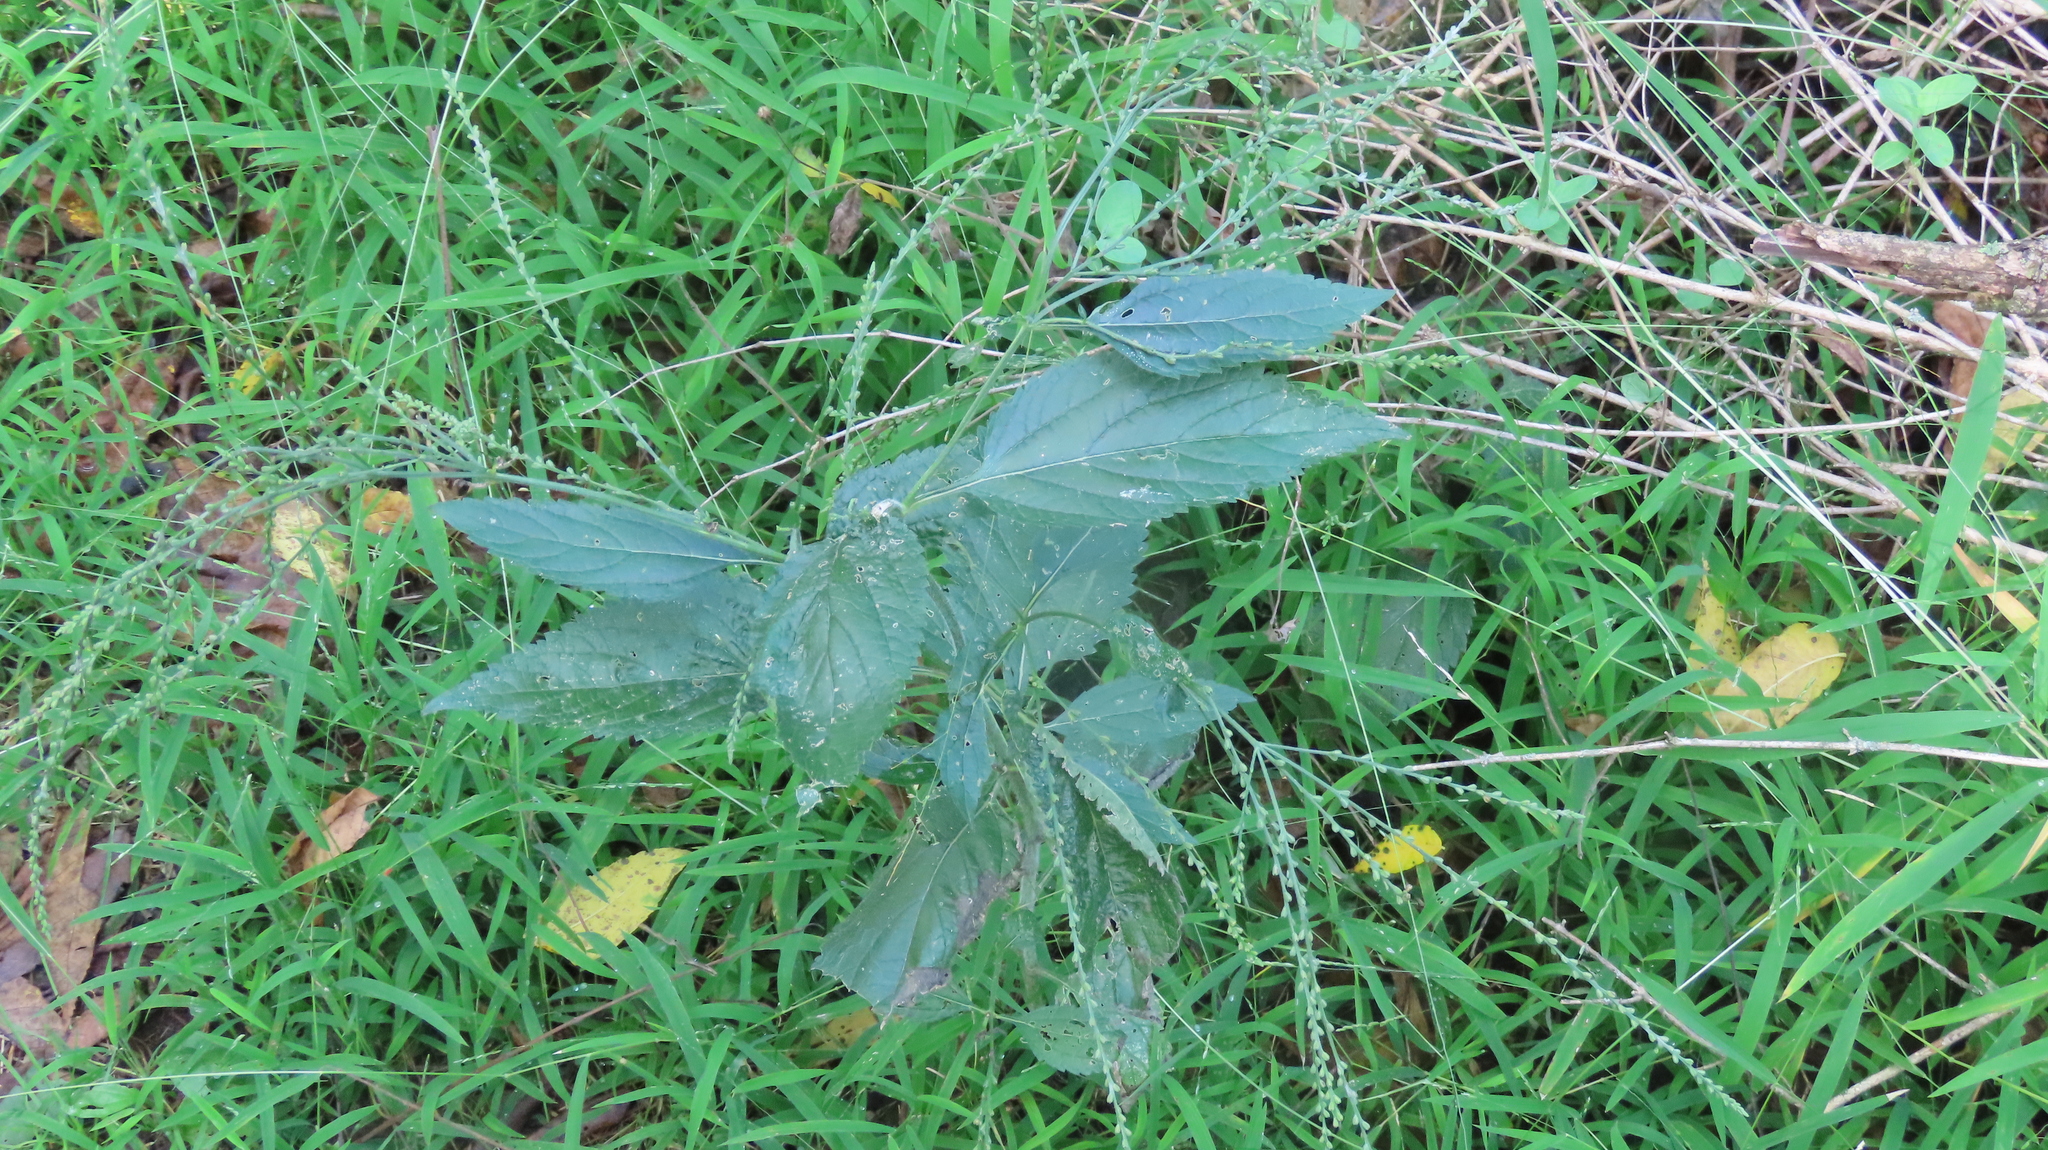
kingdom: Plantae
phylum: Tracheophyta
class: Magnoliopsida
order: Lamiales
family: Verbenaceae
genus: Verbena
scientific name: Verbena urticifolia
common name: Nettle-leaved vervain
